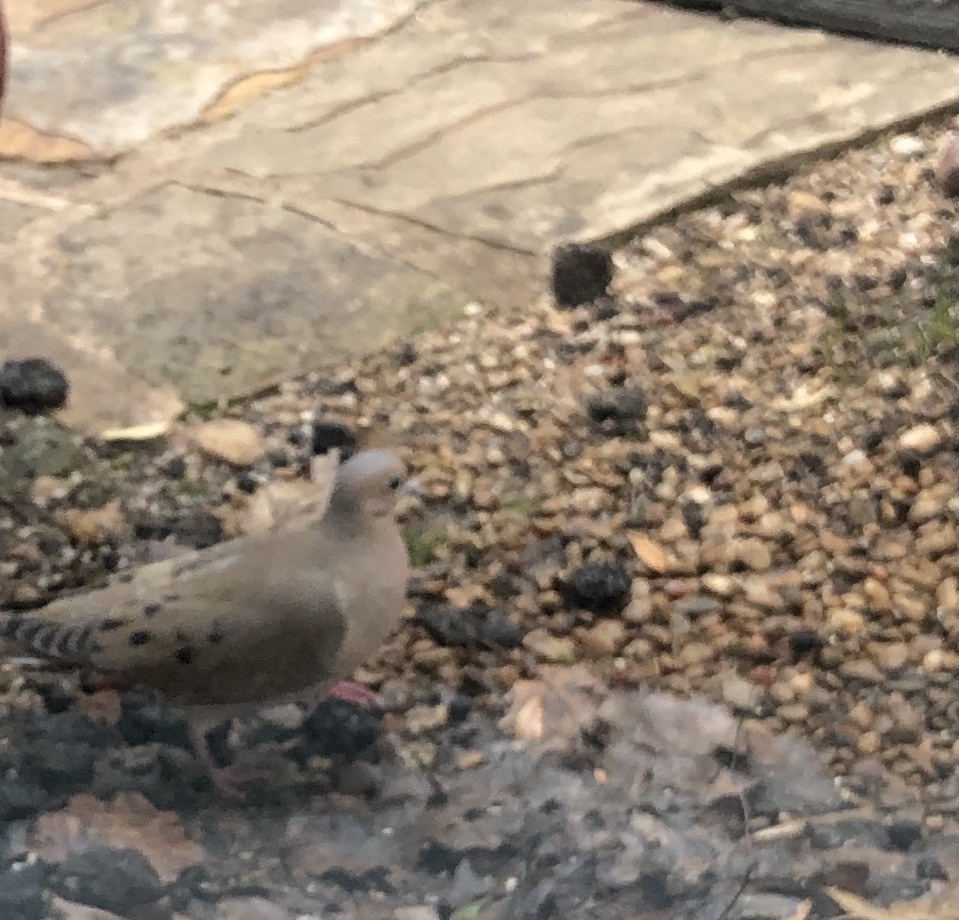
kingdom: Animalia
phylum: Chordata
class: Aves
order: Columbiformes
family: Columbidae
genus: Zenaida
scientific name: Zenaida macroura
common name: Mourning dove
